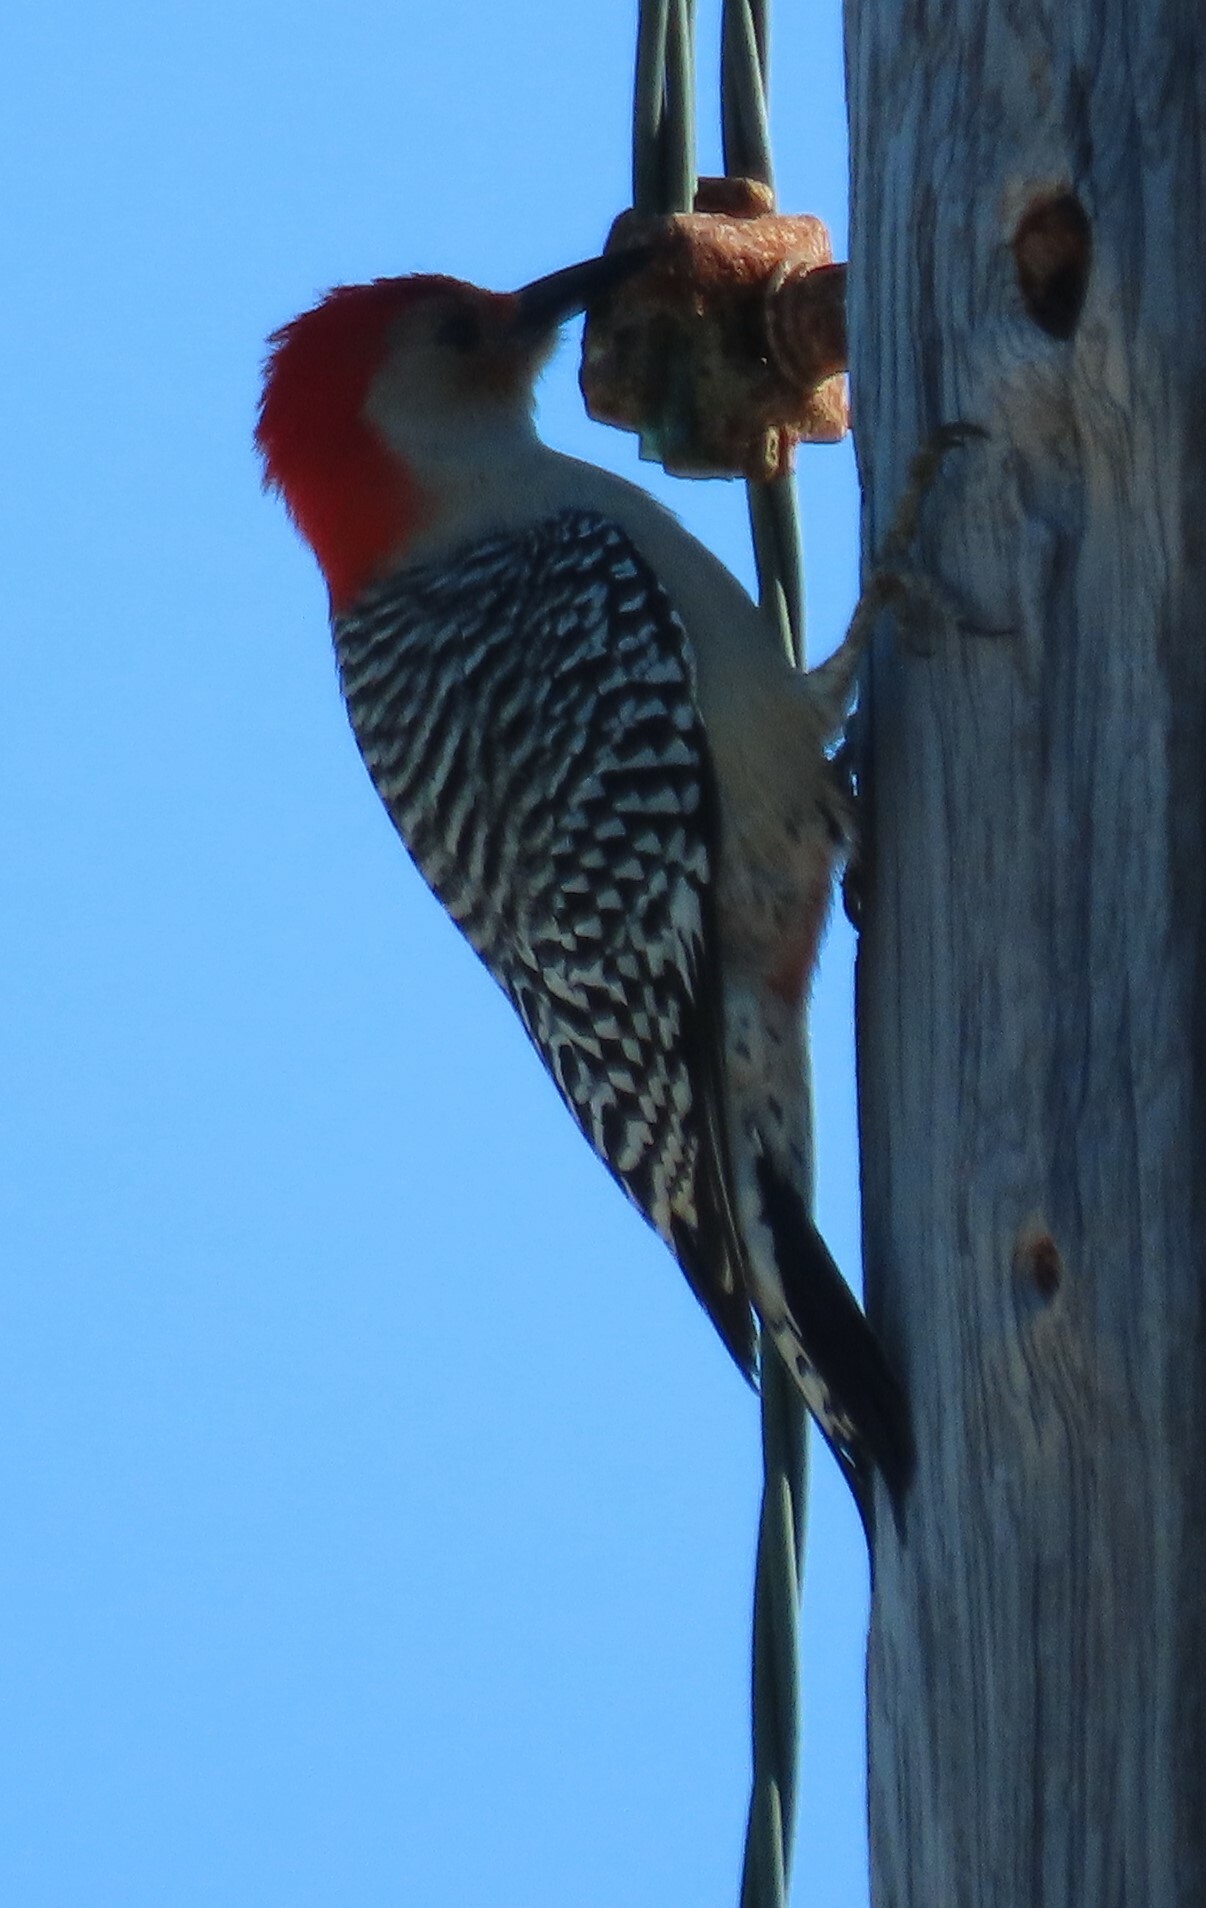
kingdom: Animalia
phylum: Chordata
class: Aves
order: Piciformes
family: Picidae
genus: Melanerpes
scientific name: Melanerpes carolinus
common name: Red-bellied woodpecker
